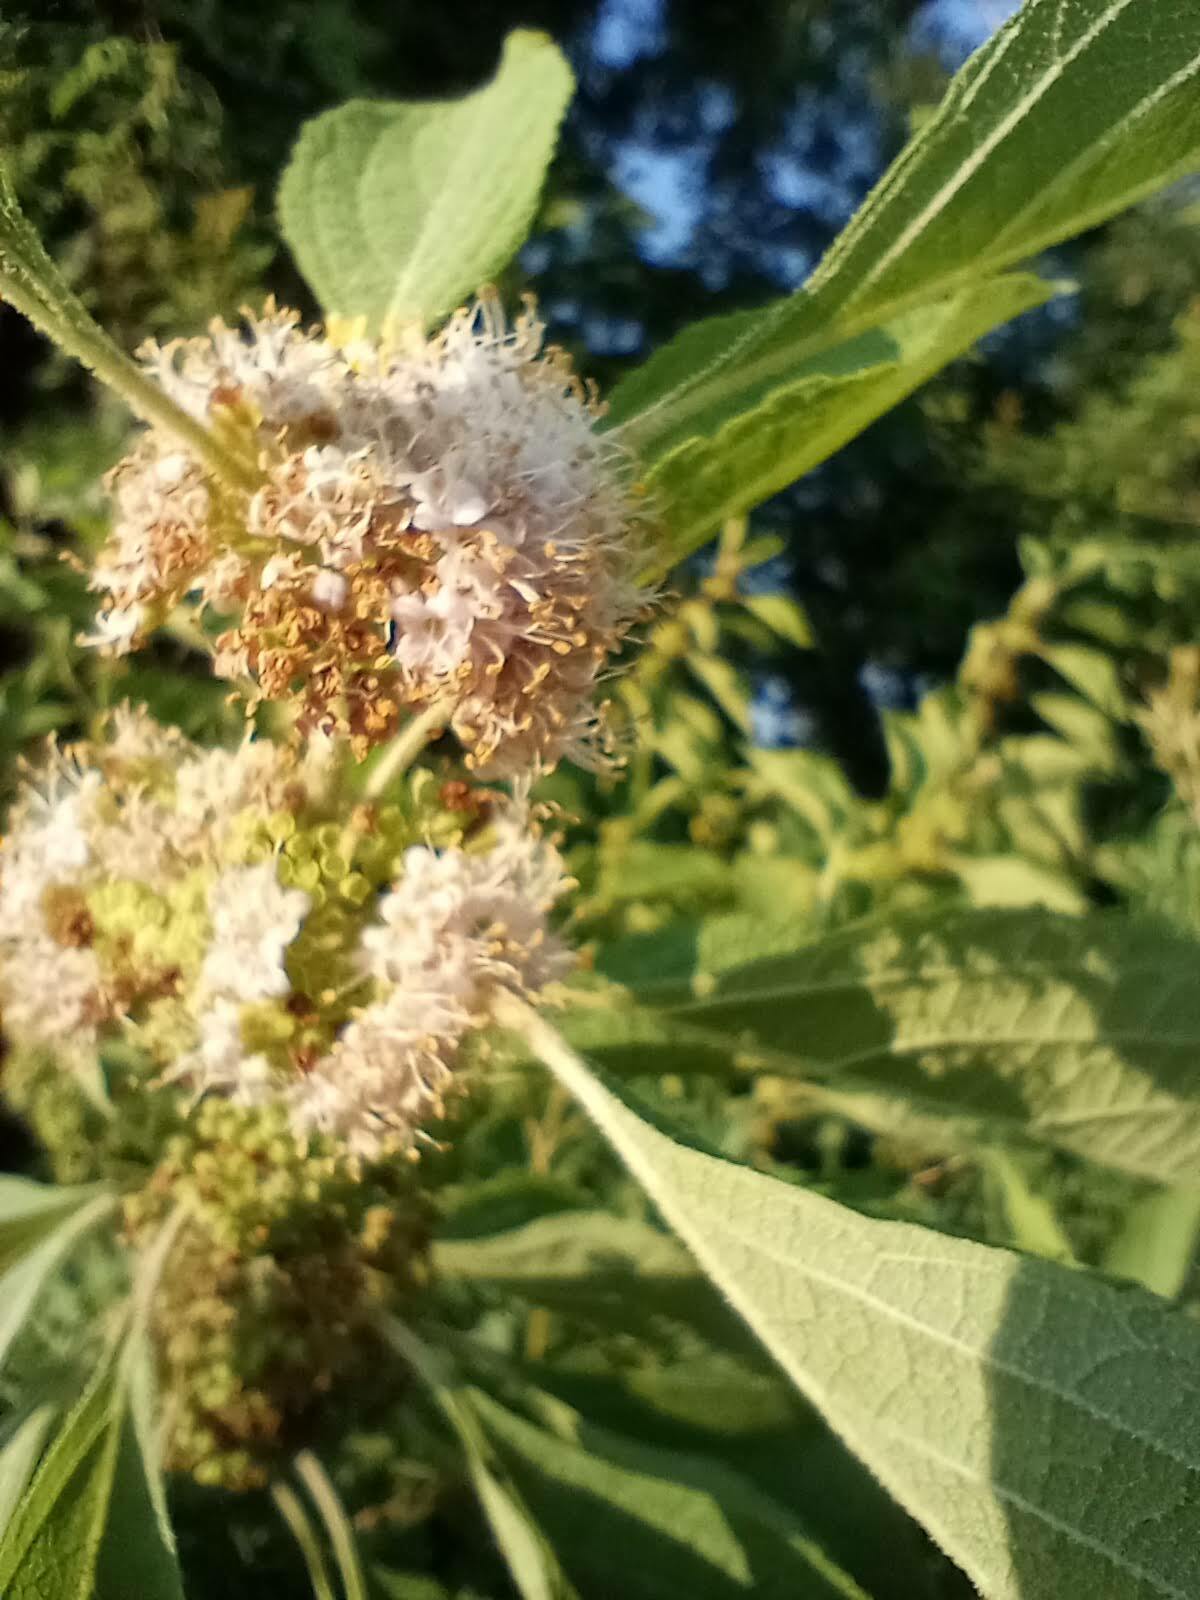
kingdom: Plantae
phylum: Tracheophyta
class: Magnoliopsida
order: Lamiales
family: Lamiaceae
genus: Callicarpa
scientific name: Callicarpa americana
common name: American beautyberry
